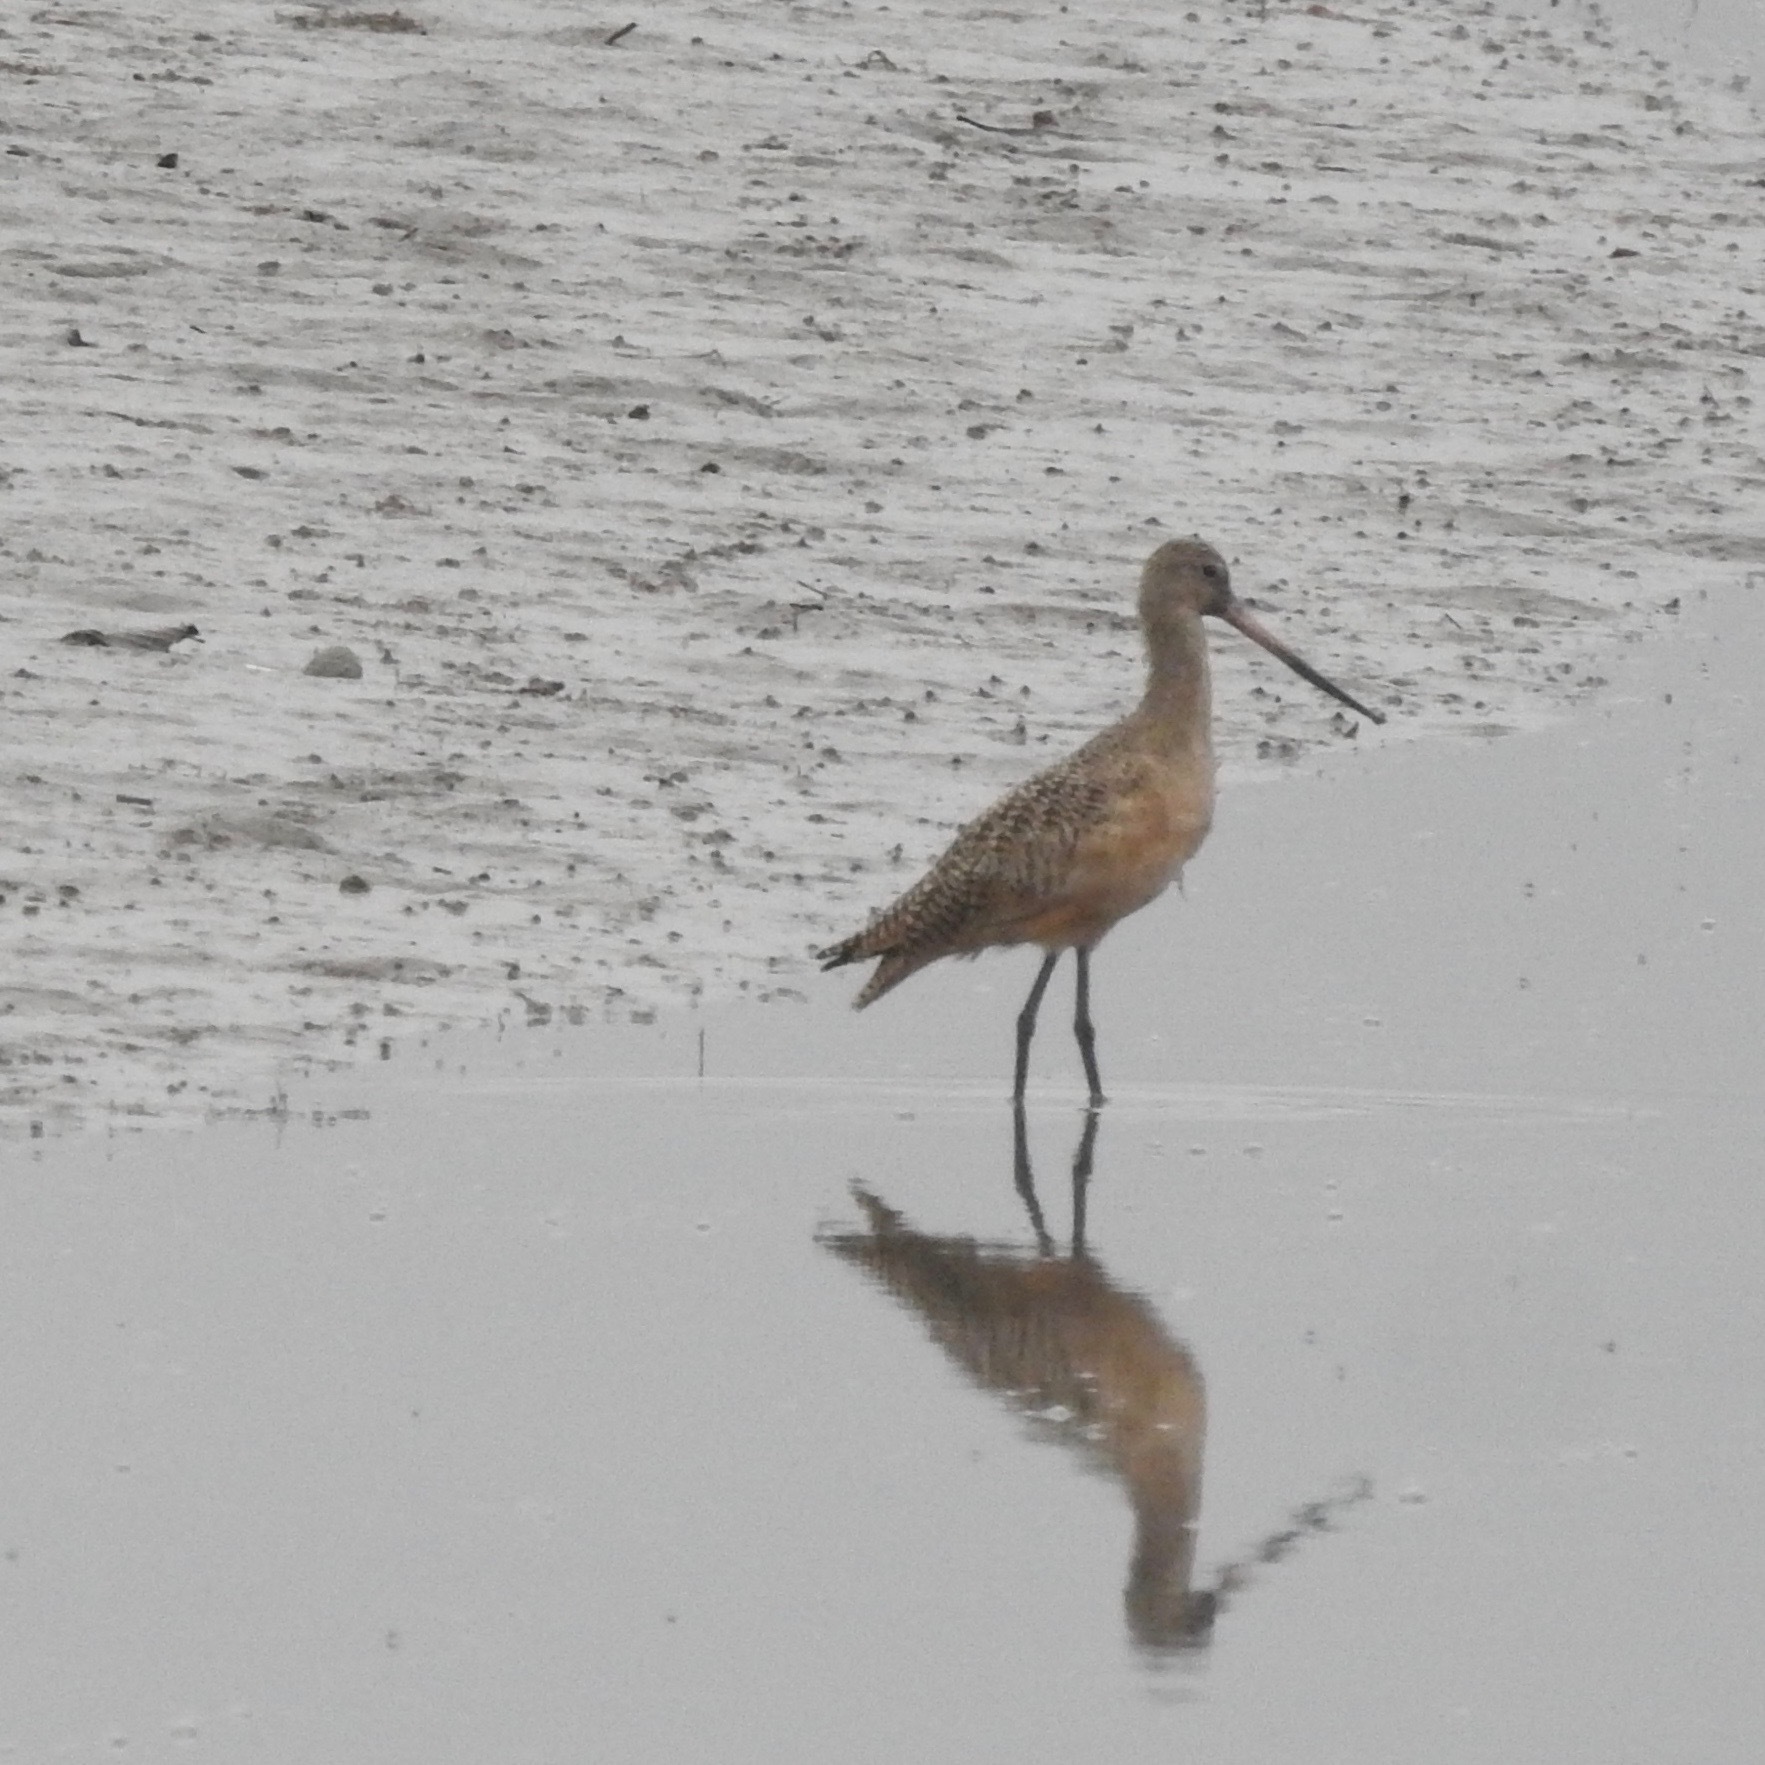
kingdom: Animalia
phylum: Chordata
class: Aves
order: Charadriiformes
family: Scolopacidae
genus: Limosa
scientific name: Limosa fedoa
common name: Marbled godwit
